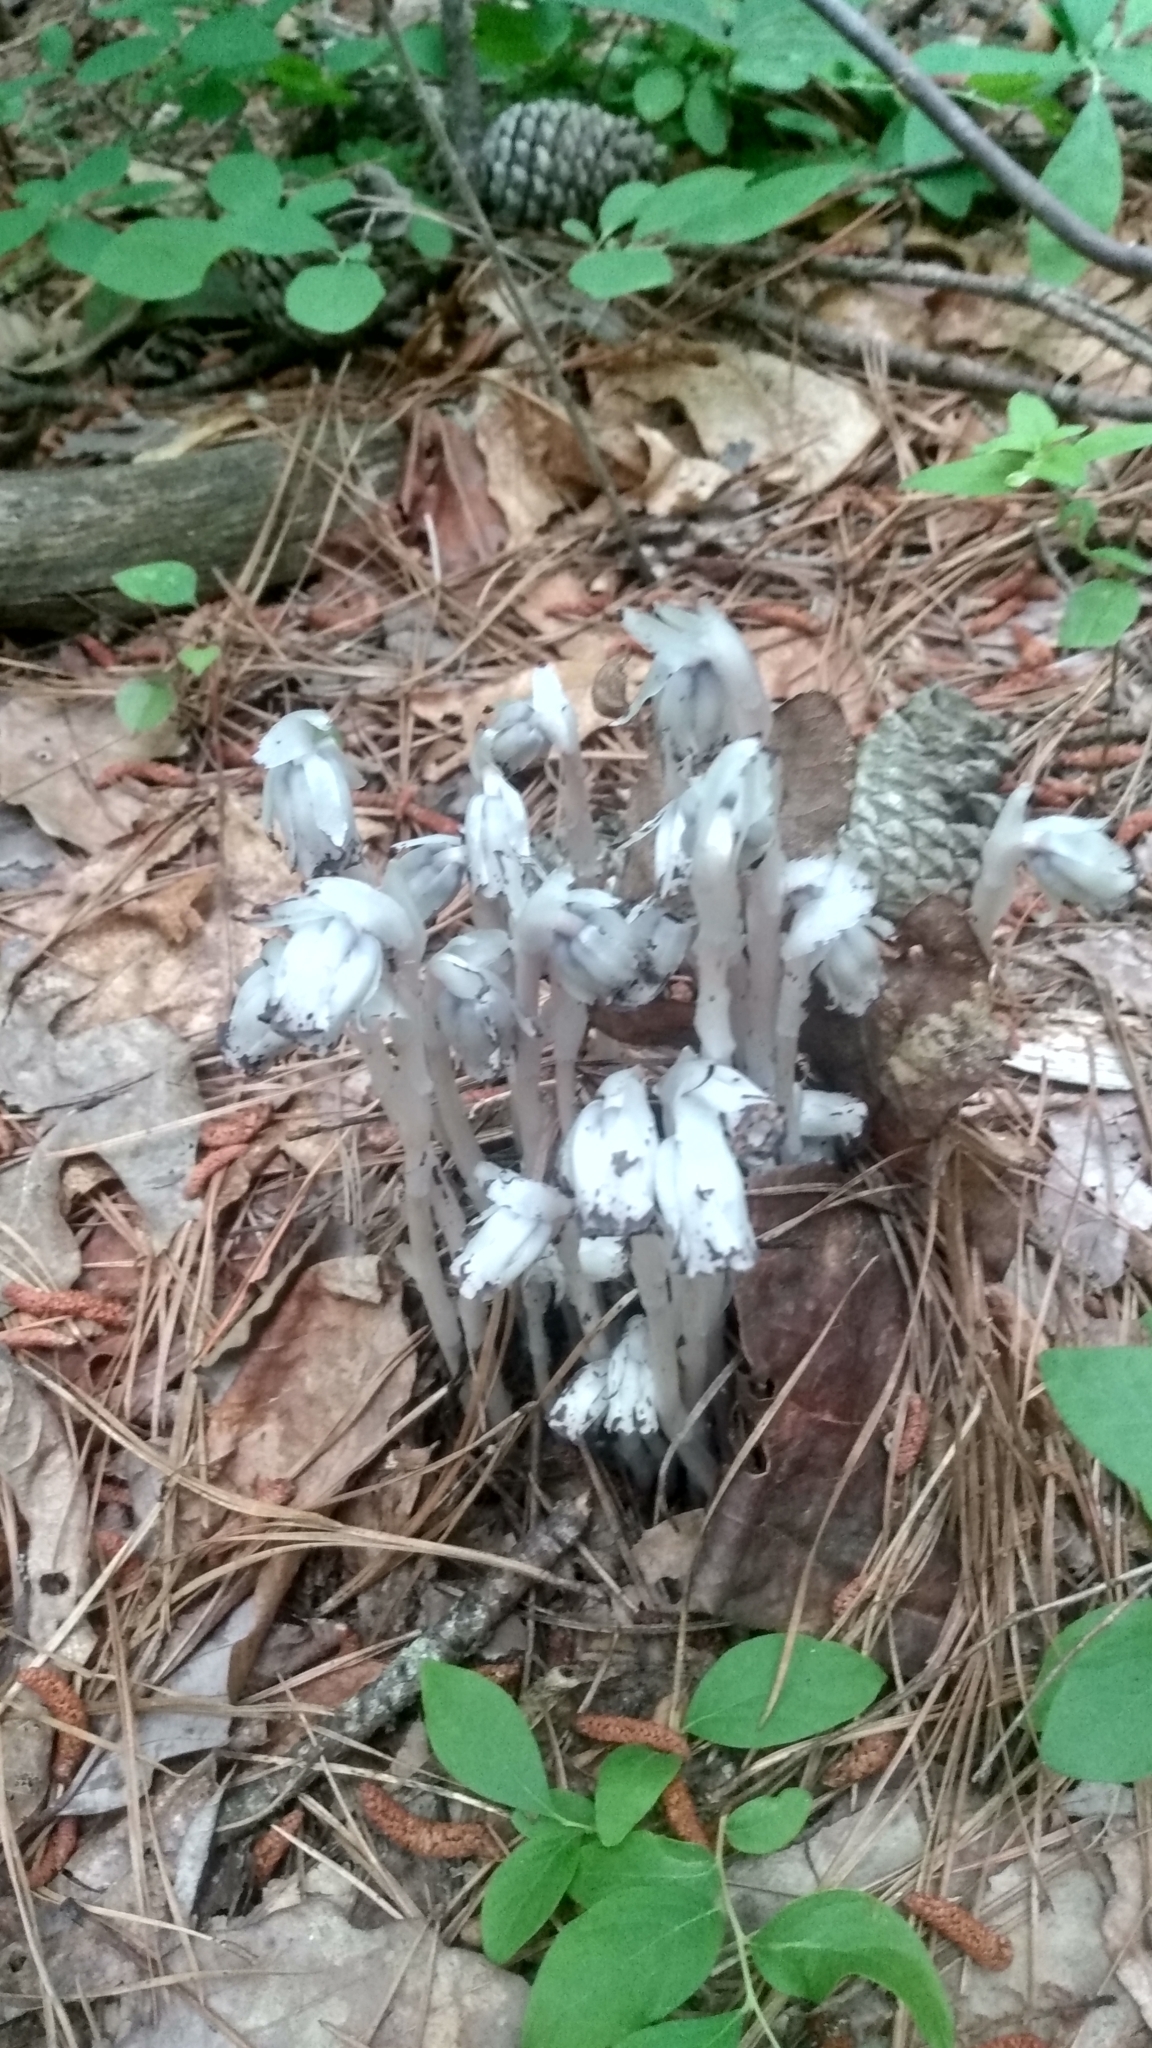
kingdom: Plantae
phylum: Tracheophyta
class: Magnoliopsida
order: Ericales
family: Ericaceae
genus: Monotropa
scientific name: Monotropa uniflora
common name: Convulsion root
